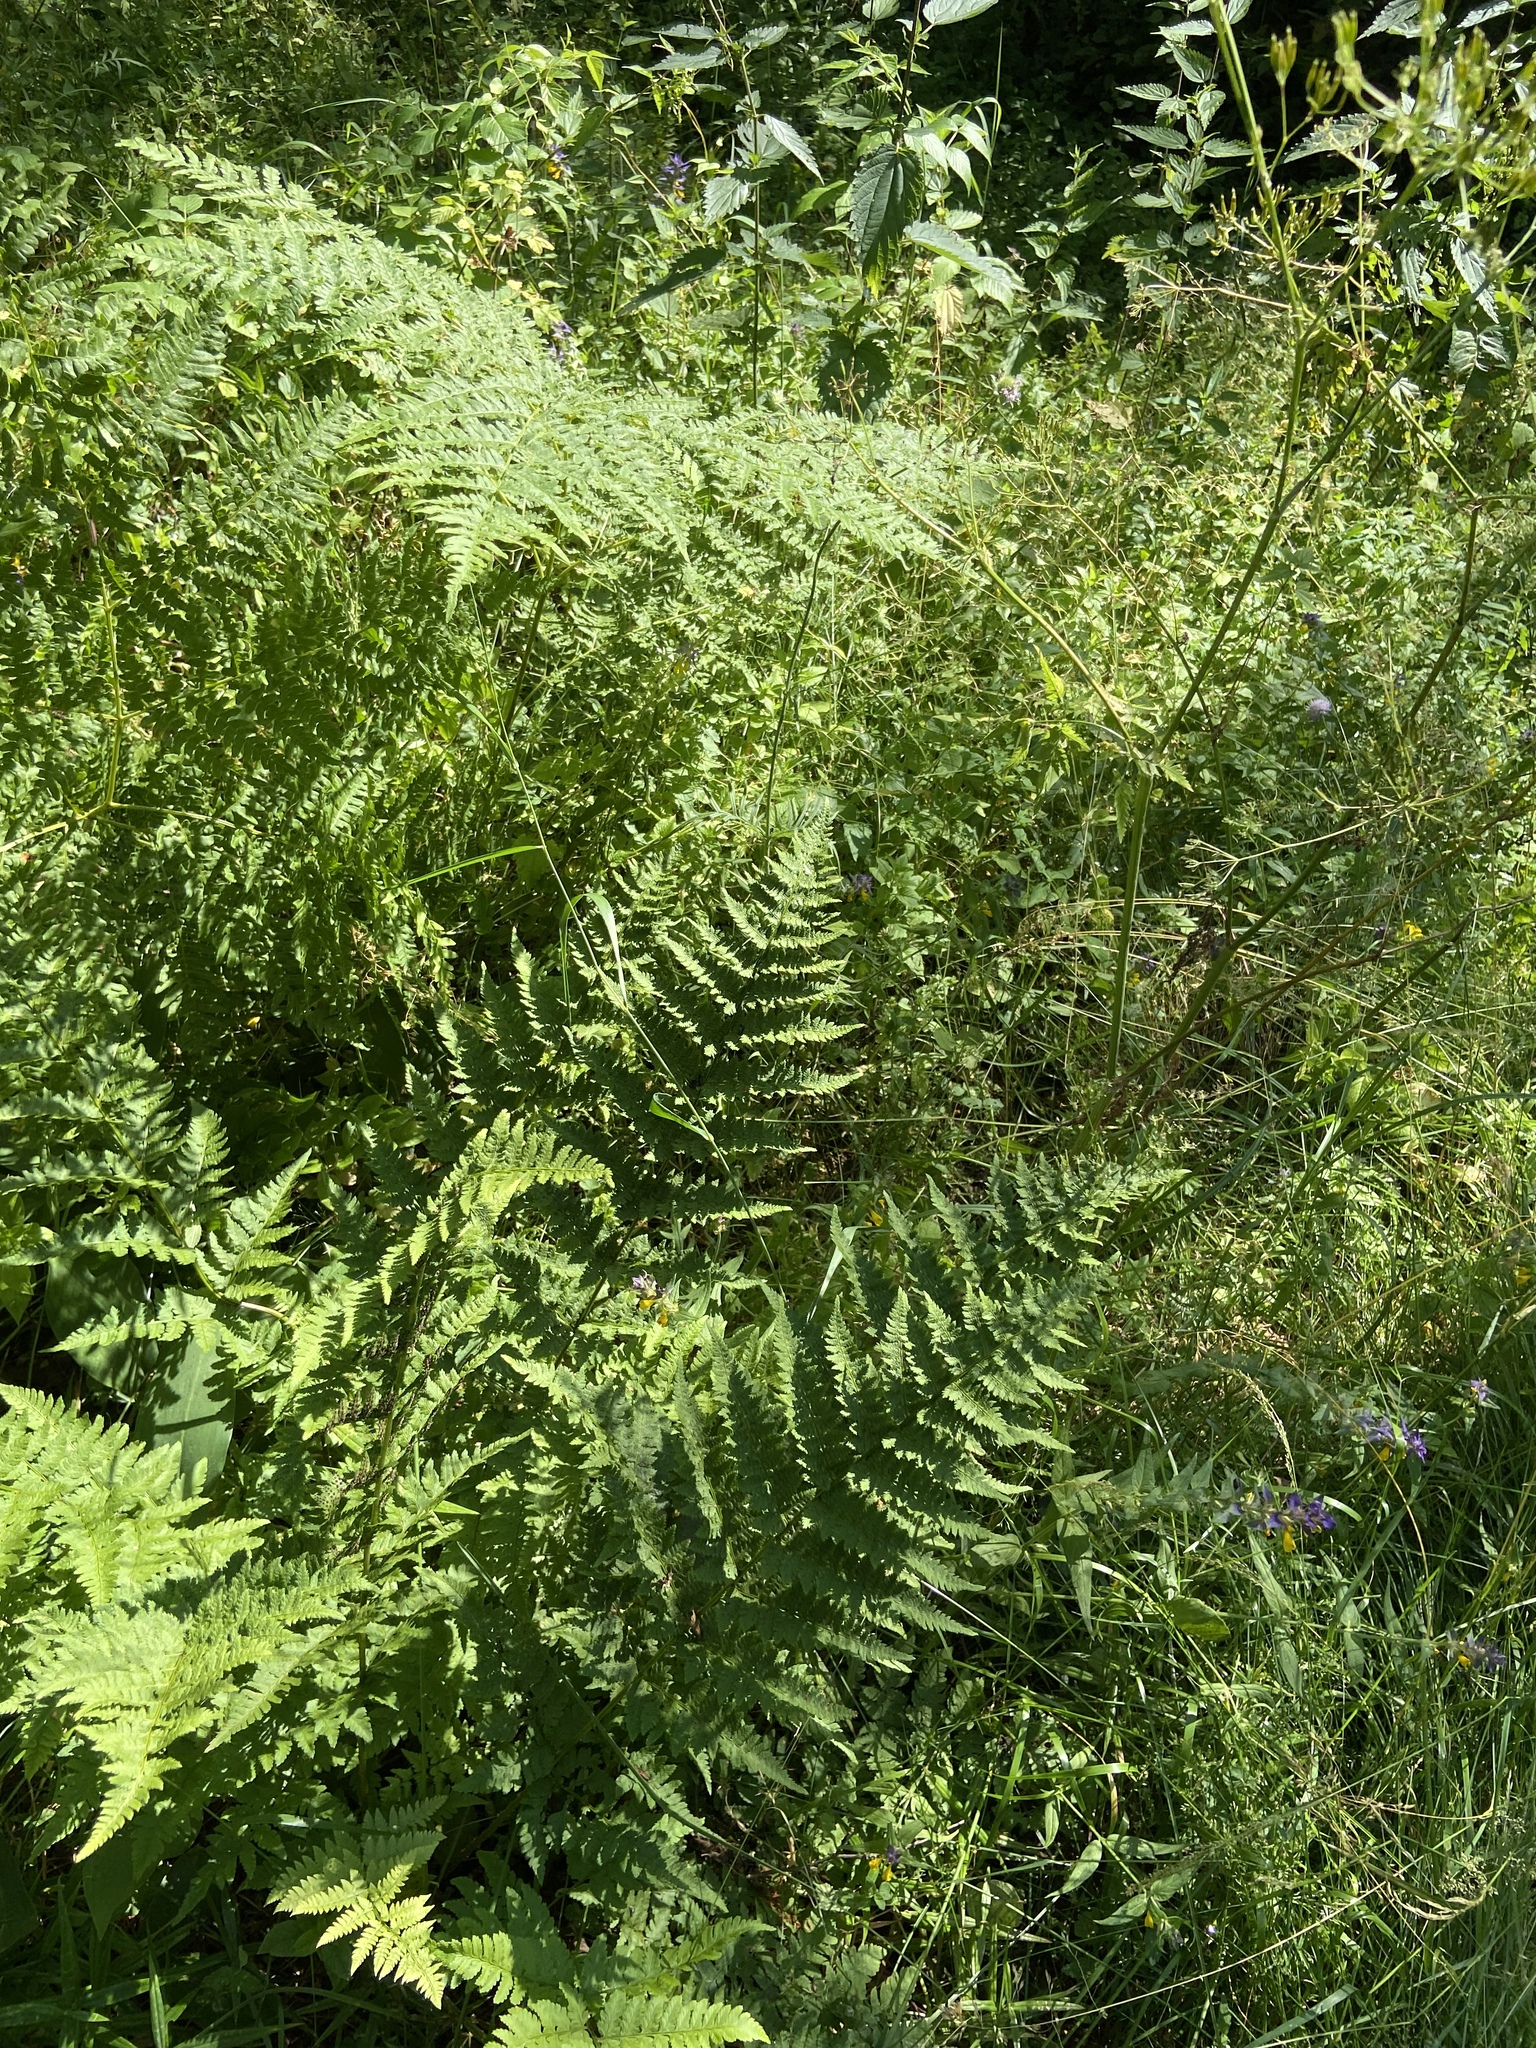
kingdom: Plantae
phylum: Tracheophyta
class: Polypodiopsida
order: Polypodiales
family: Dennstaedtiaceae
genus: Pteridium
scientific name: Pteridium aquilinum
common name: Bracken
